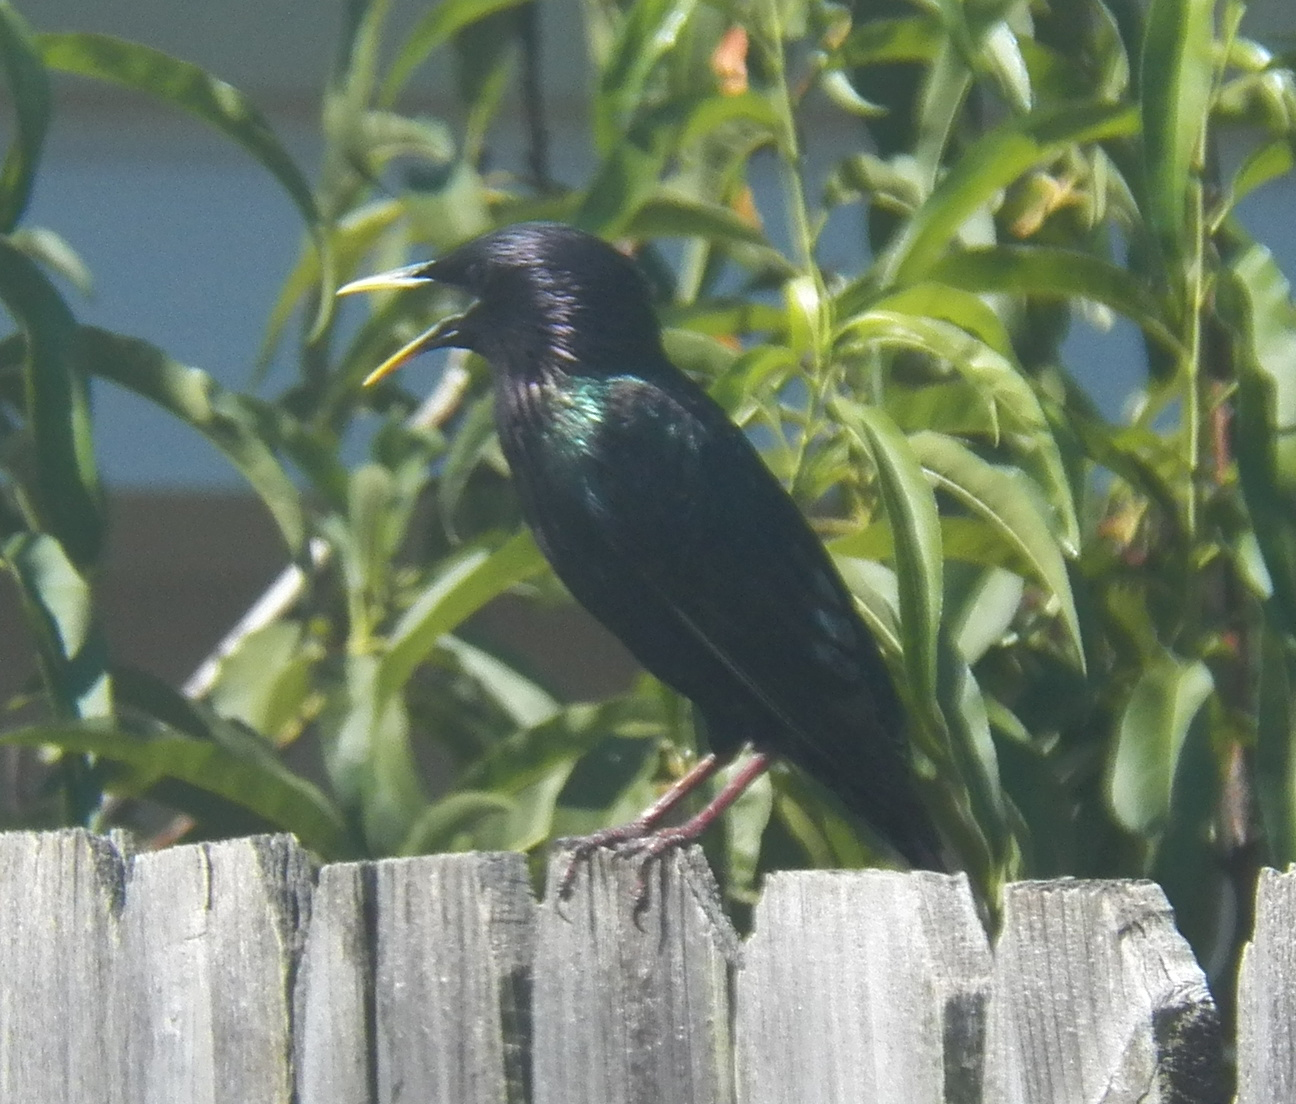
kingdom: Animalia
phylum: Chordata
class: Aves
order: Passeriformes
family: Sturnidae
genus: Sturnus
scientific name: Sturnus vulgaris
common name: Common starling
